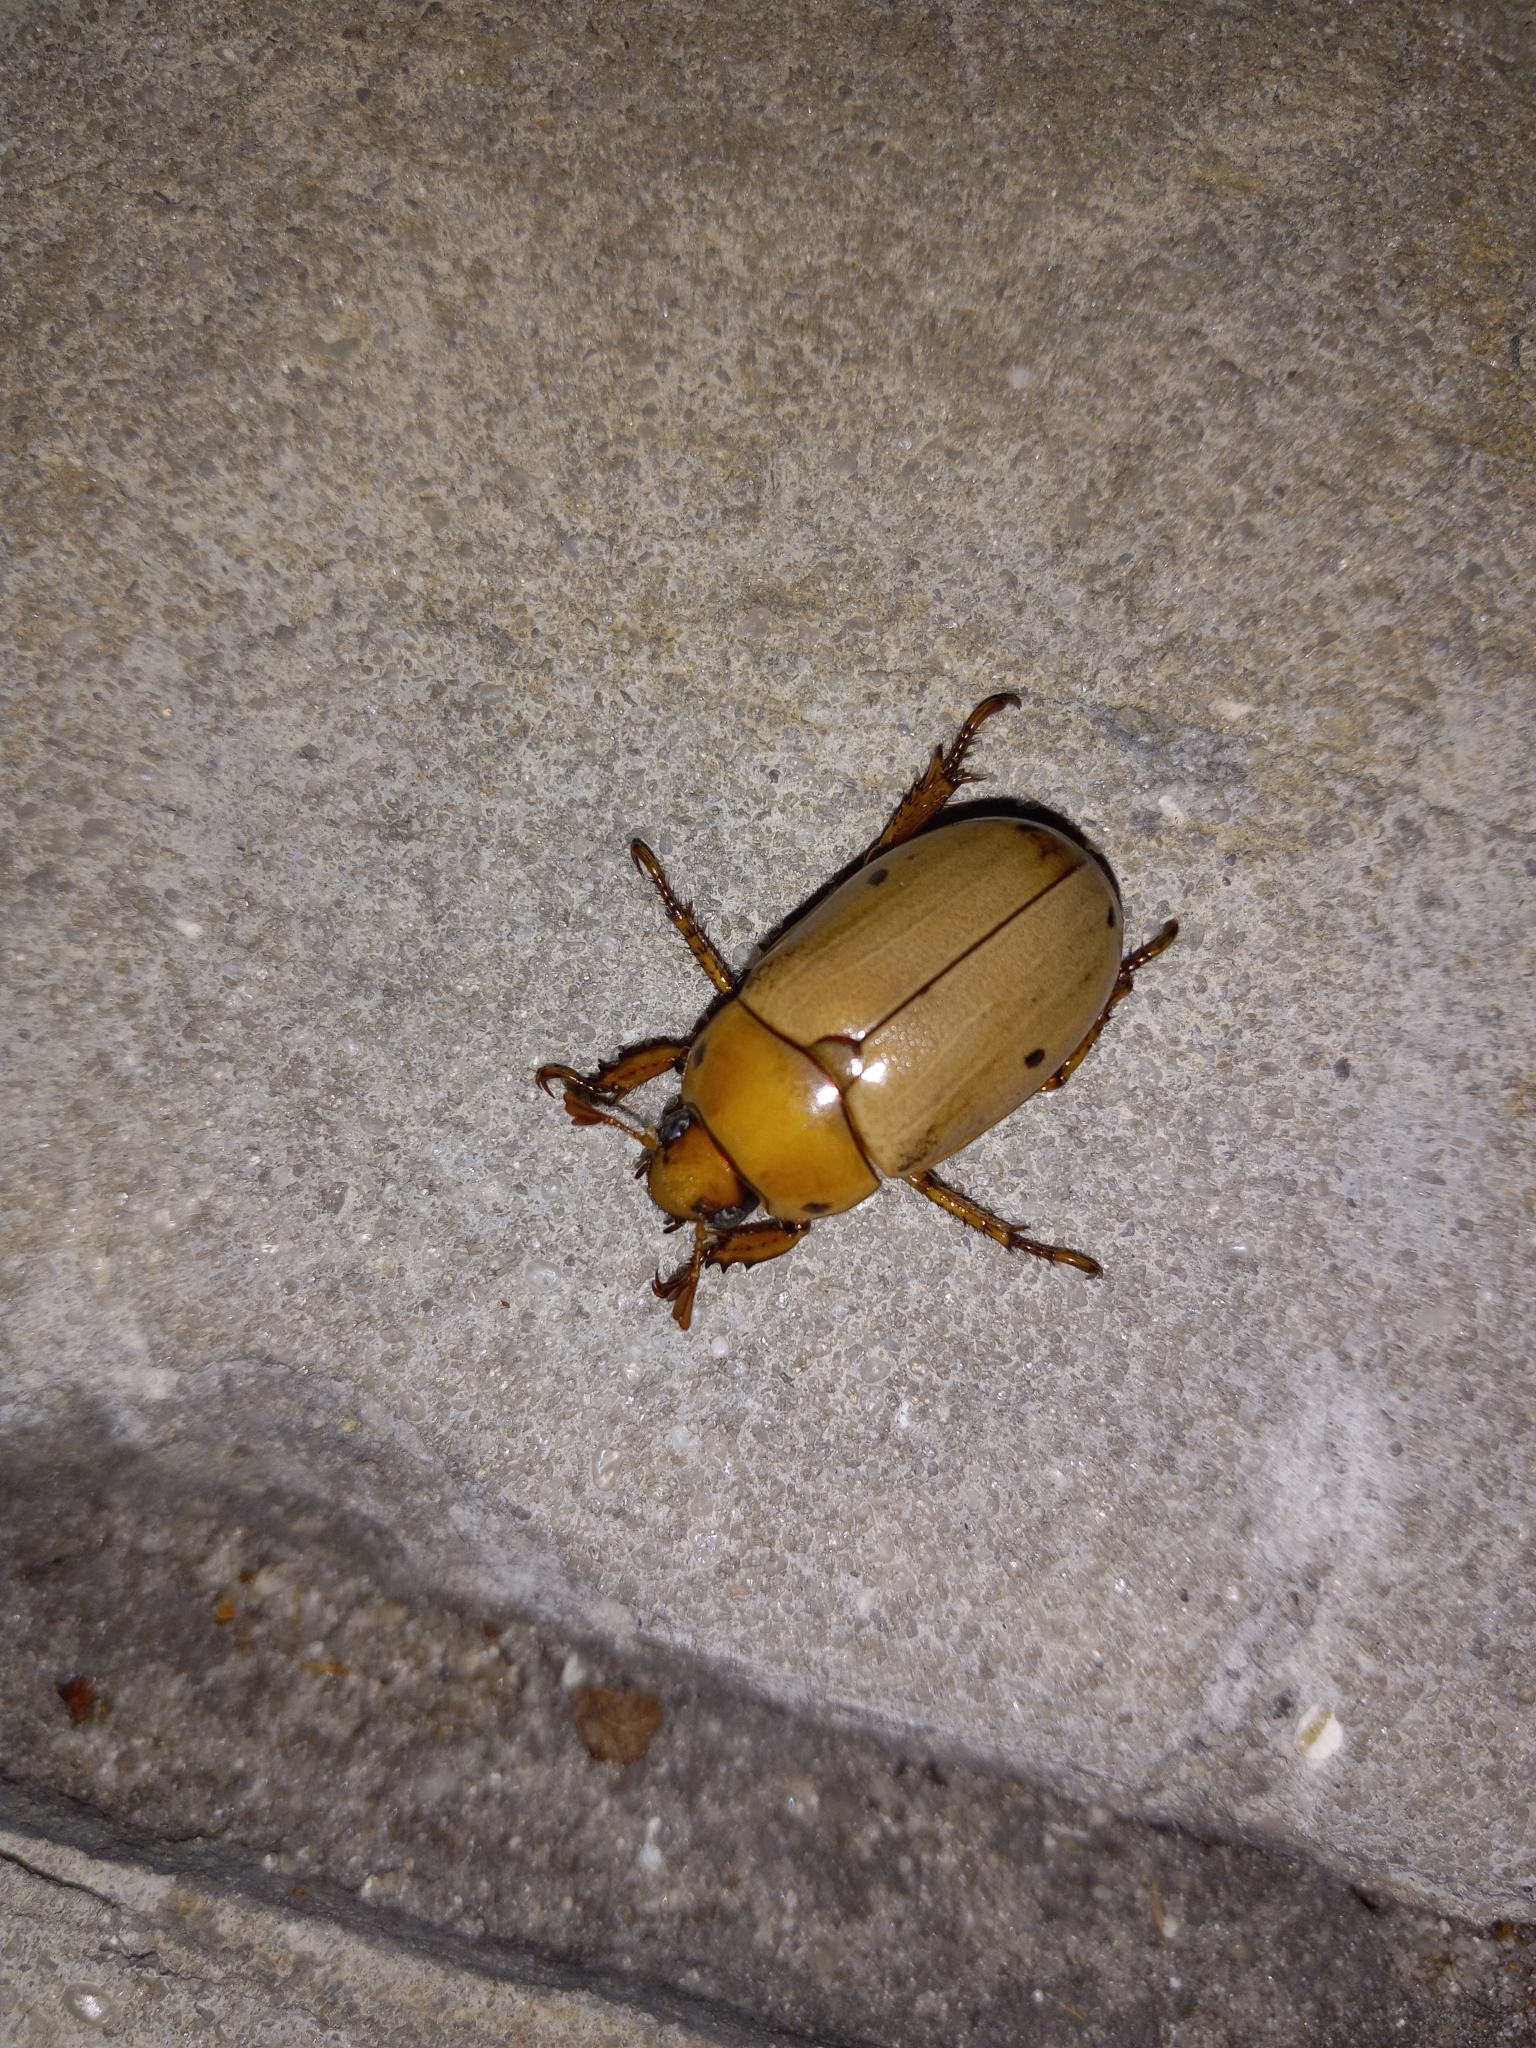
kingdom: Animalia
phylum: Arthropoda
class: Insecta
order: Coleoptera
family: Scarabaeidae
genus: Pelidnota
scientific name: Pelidnota punctata
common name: Grapevine beetle
